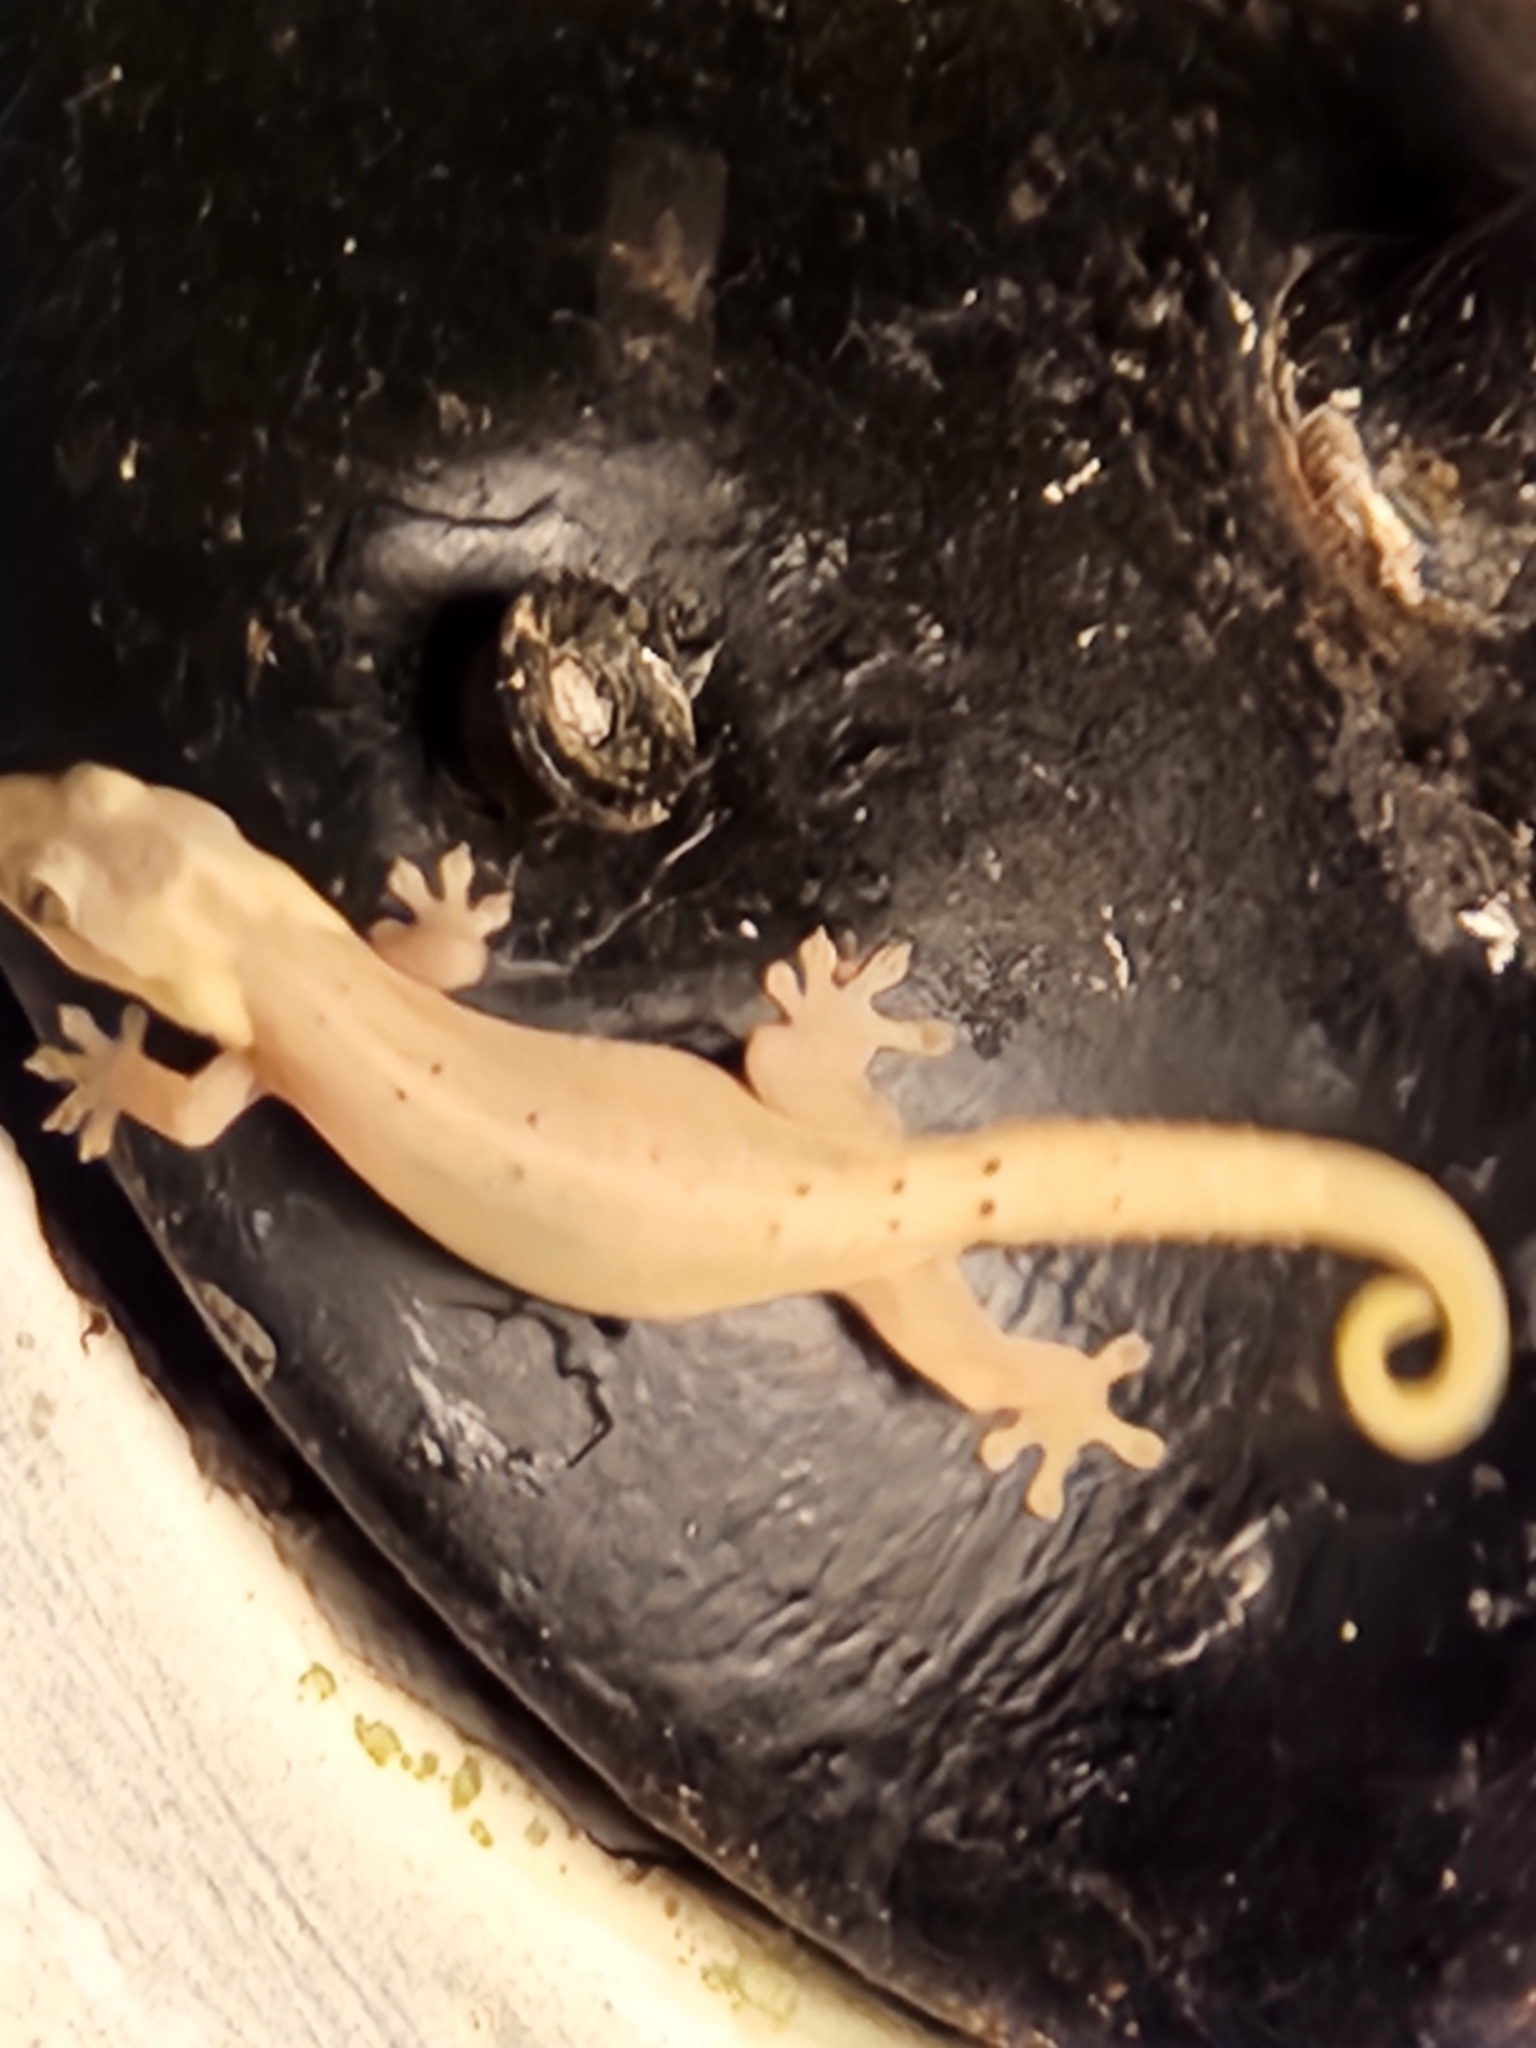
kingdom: Animalia
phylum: Chordata
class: Squamata
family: Gekkonidae
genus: Lepidodactylus
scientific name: Lepidodactylus lugubris
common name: Mourning gecko
